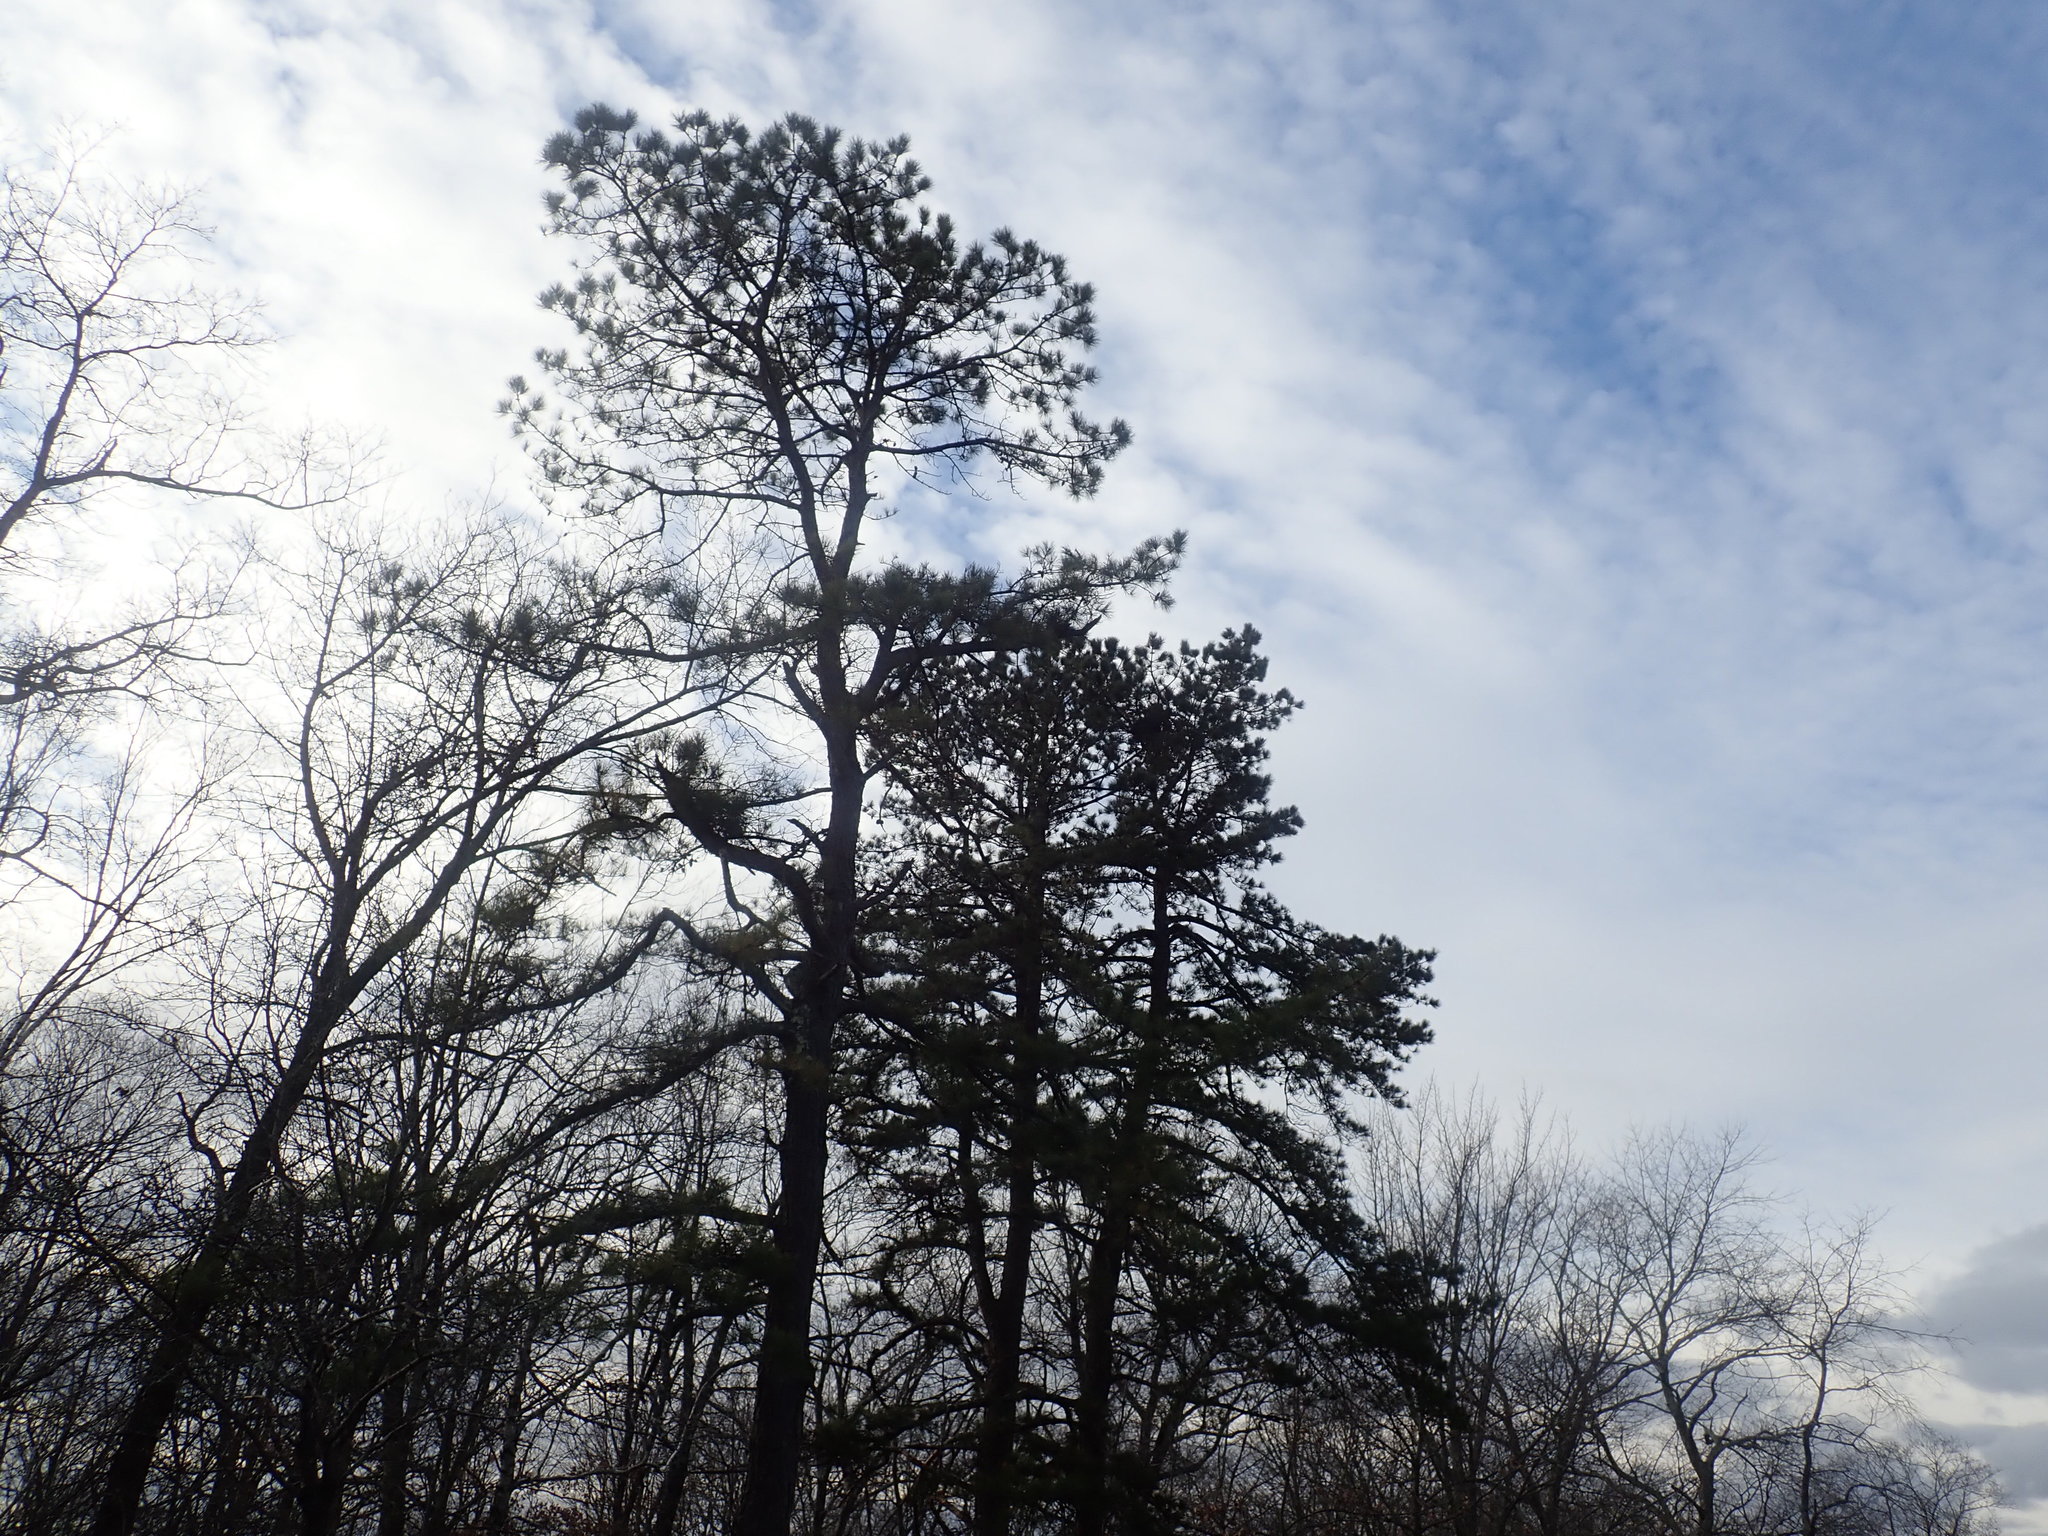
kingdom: Plantae
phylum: Tracheophyta
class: Pinopsida
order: Pinales
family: Pinaceae
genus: Pinus
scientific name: Pinus rigida
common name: Pitch pine
